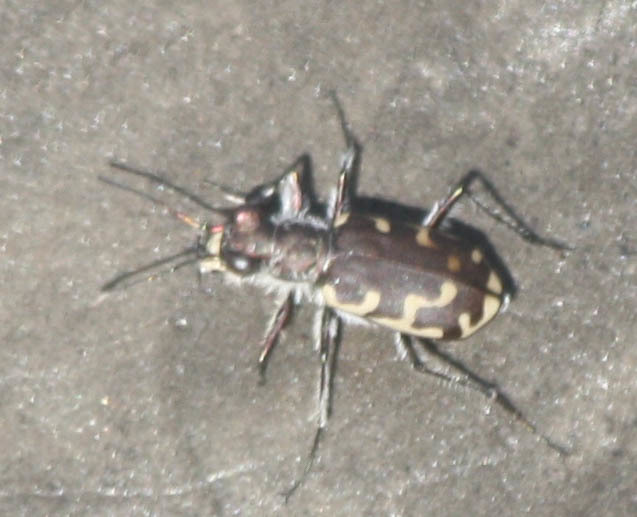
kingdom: Animalia
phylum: Arthropoda
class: Insecta
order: Coleoptera
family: Carabidae
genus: Cicindela
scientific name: Cicindela repanda
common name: Bronzed tiger beetle
